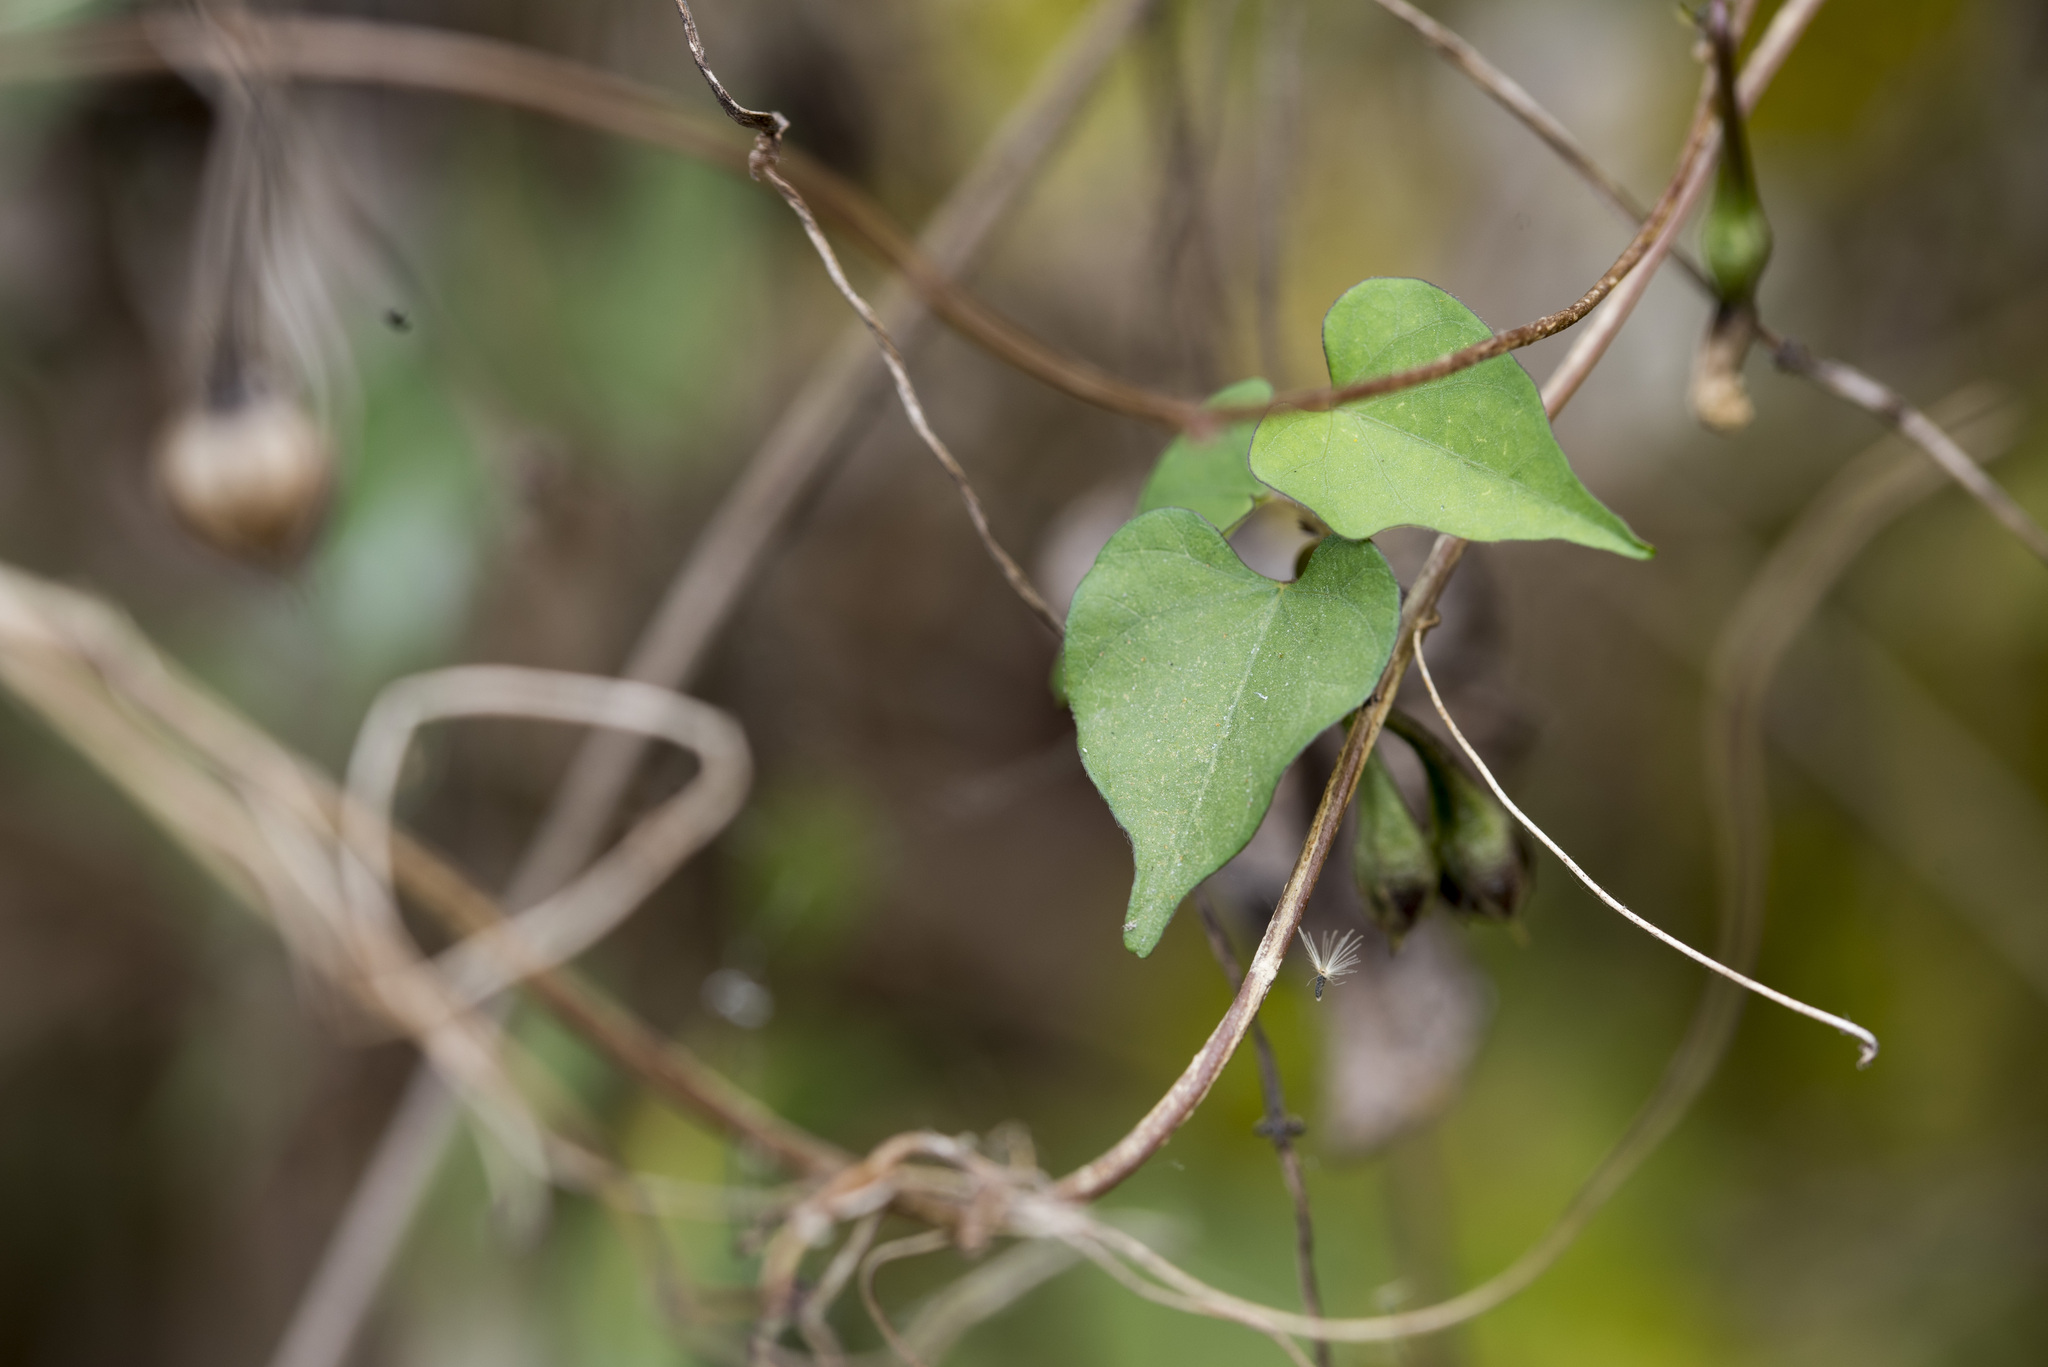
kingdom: Plantae
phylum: Tracheophyta
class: Magnoliopsida
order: Solanales
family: Convolvulaceae
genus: Ipomoea
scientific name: Ipomoea obscura
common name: Obscure morning-glory
